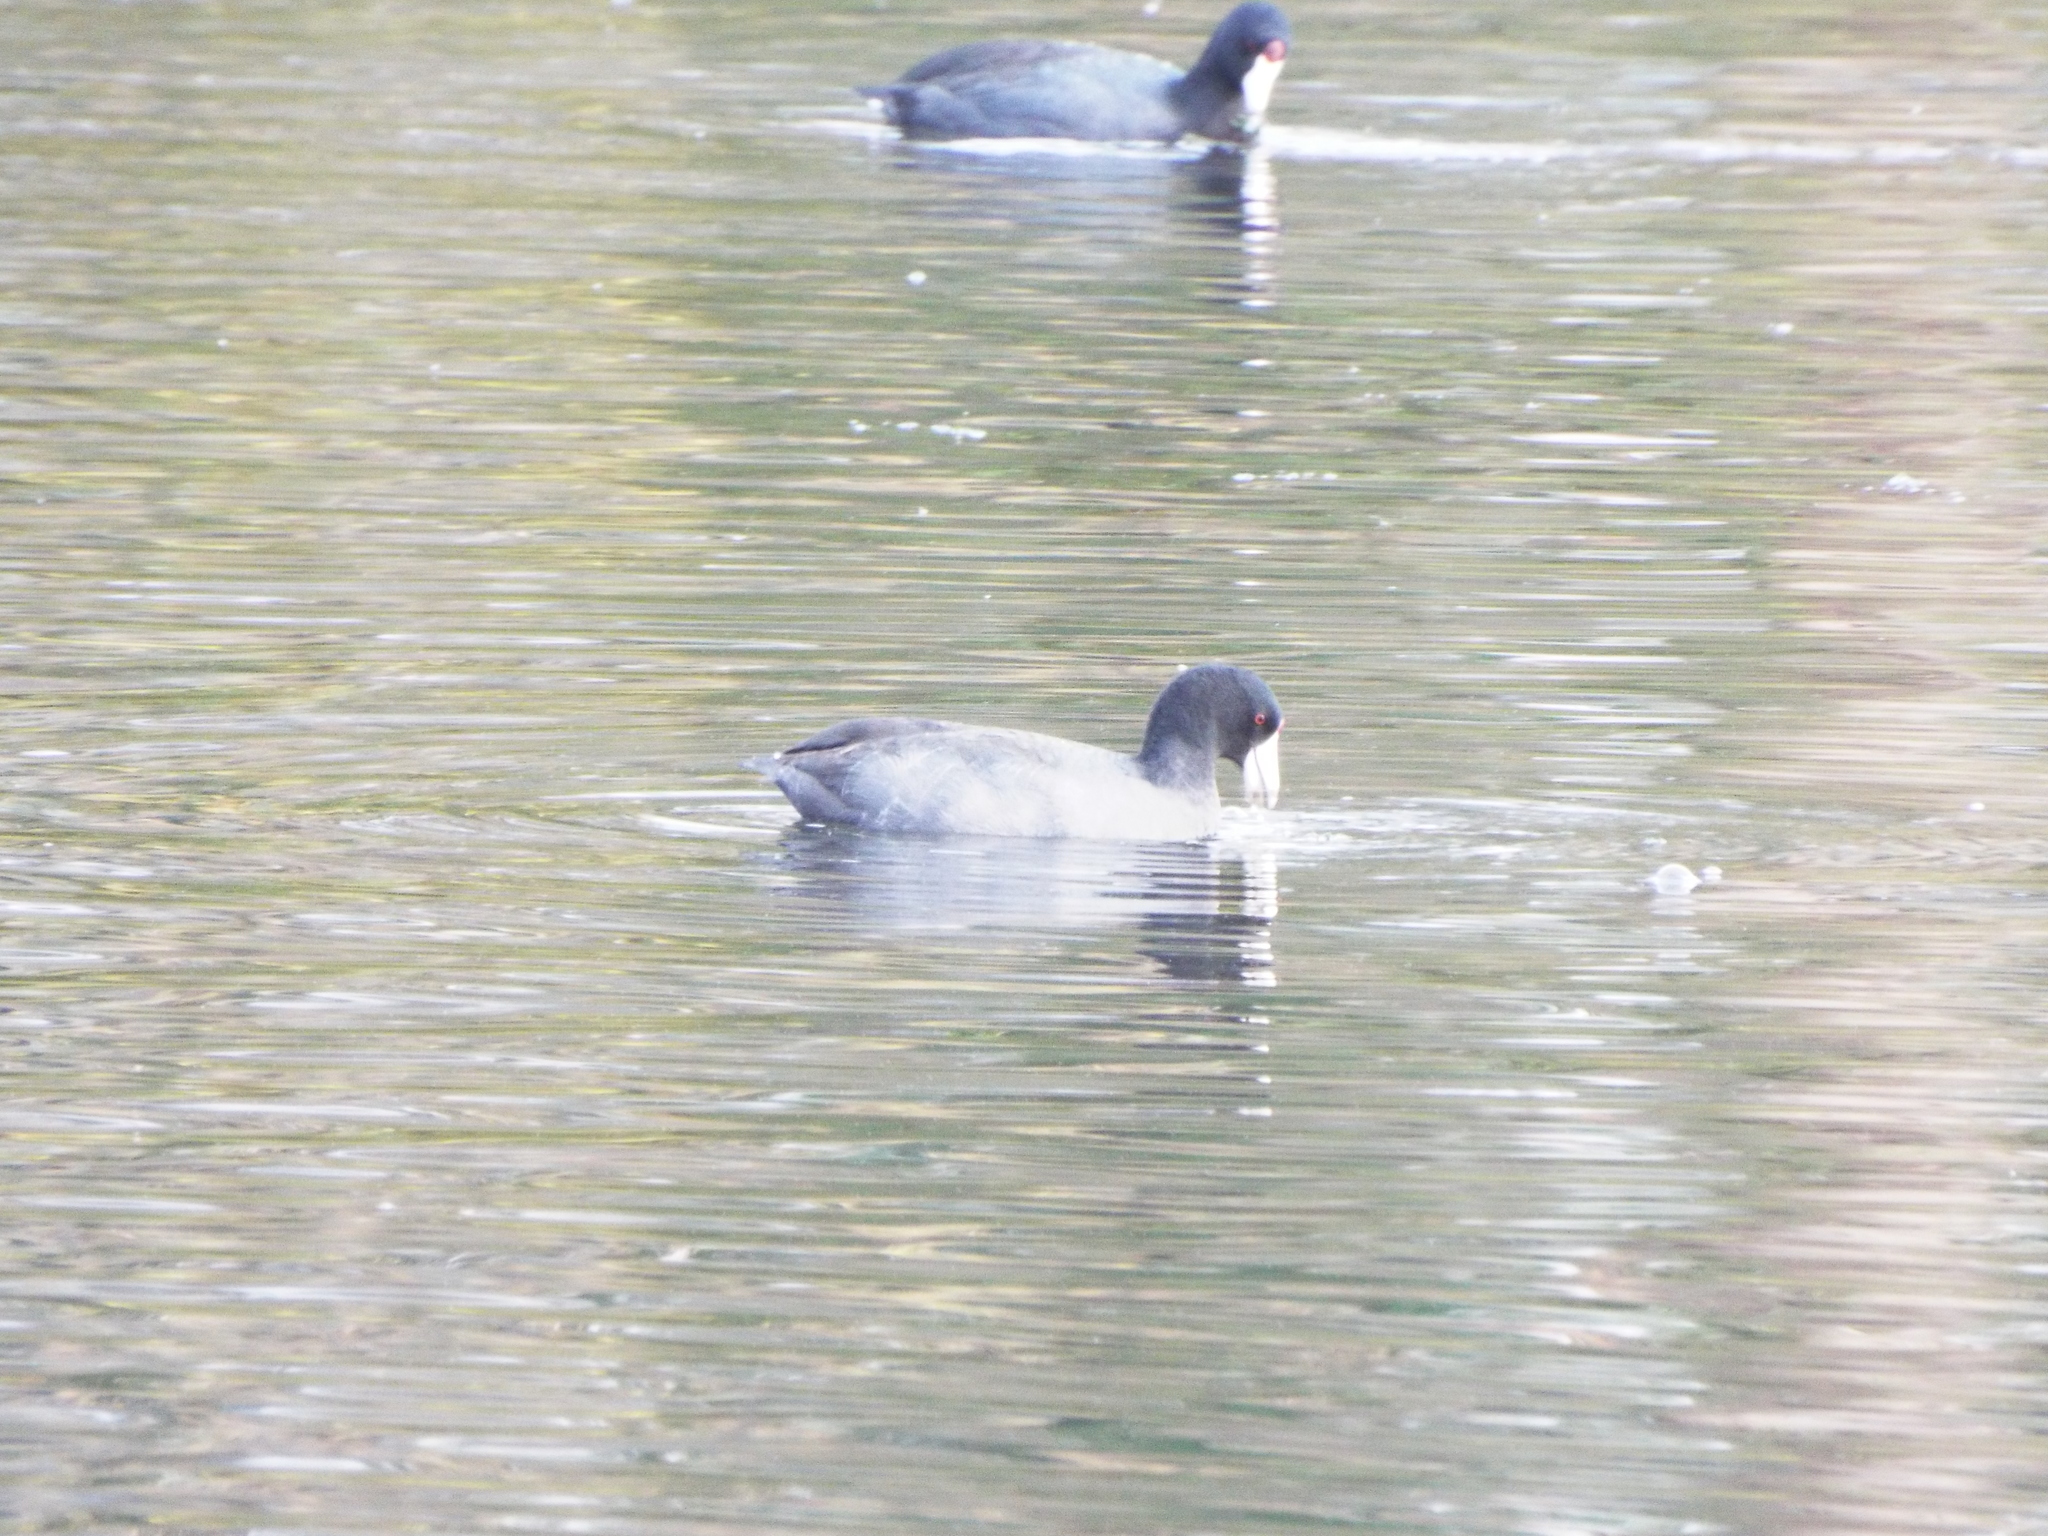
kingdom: Animalia
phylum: Chordata
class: Aves
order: Gruiformes
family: Rallidae
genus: Fulica
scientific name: Fulica americana
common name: American coot
